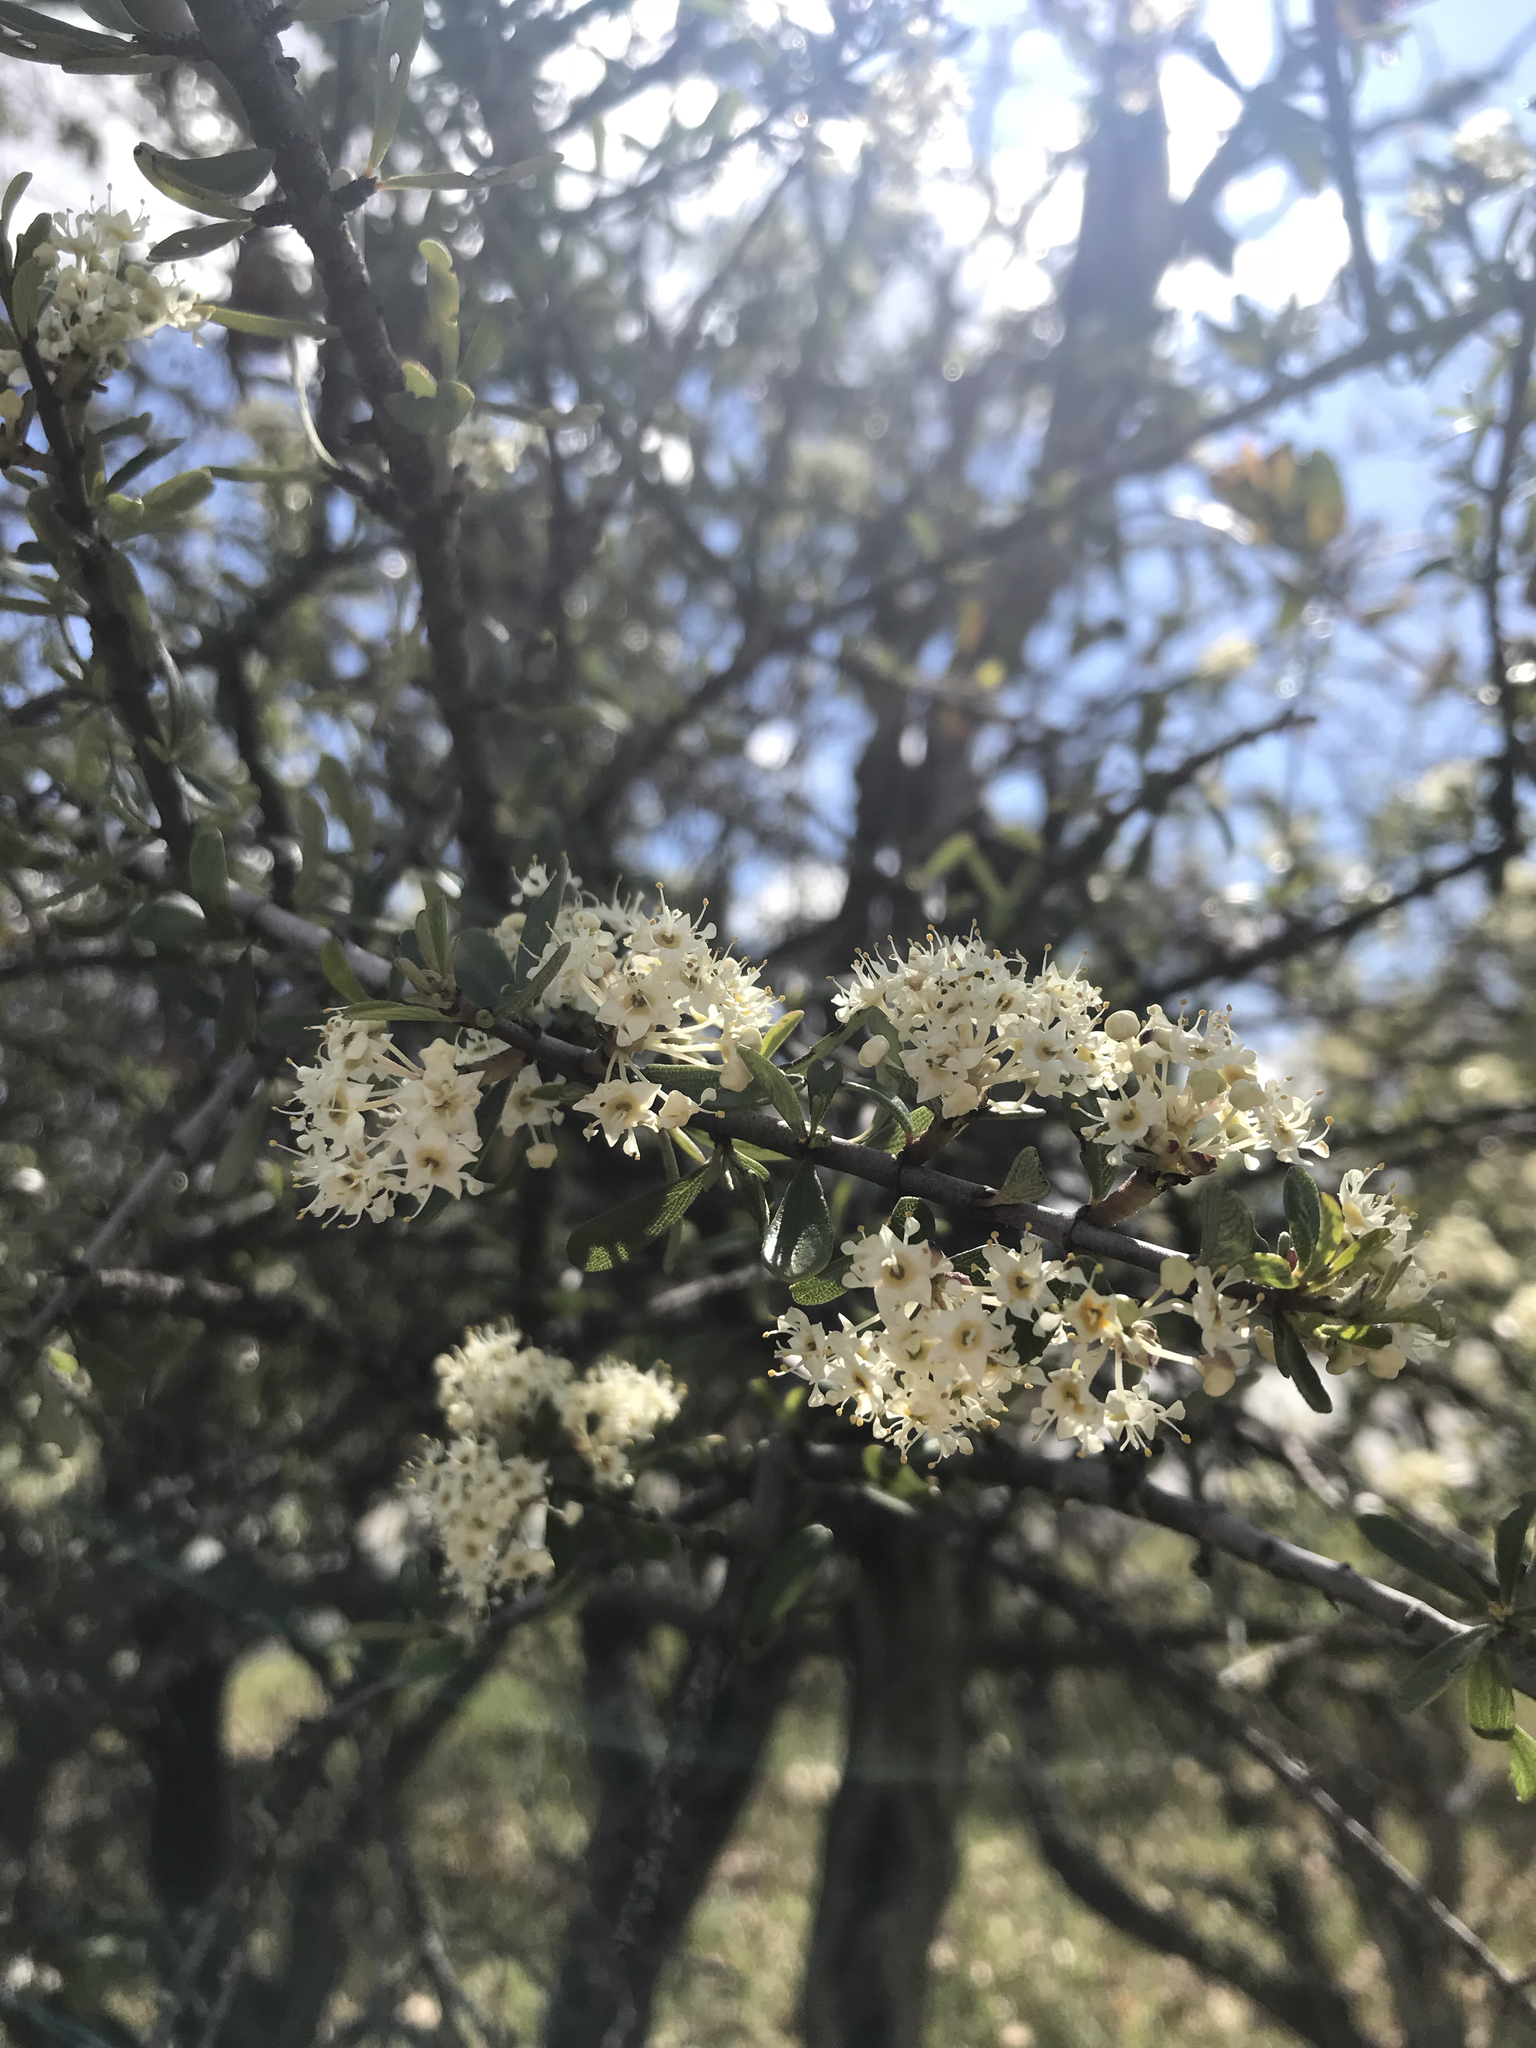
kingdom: Plantae
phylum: Tracheophyta
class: Magnoliopsida
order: Rosales
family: Rhamnaceae
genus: Ceanothus
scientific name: Ceanothus cuneatus
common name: Cuneate ceanothus
